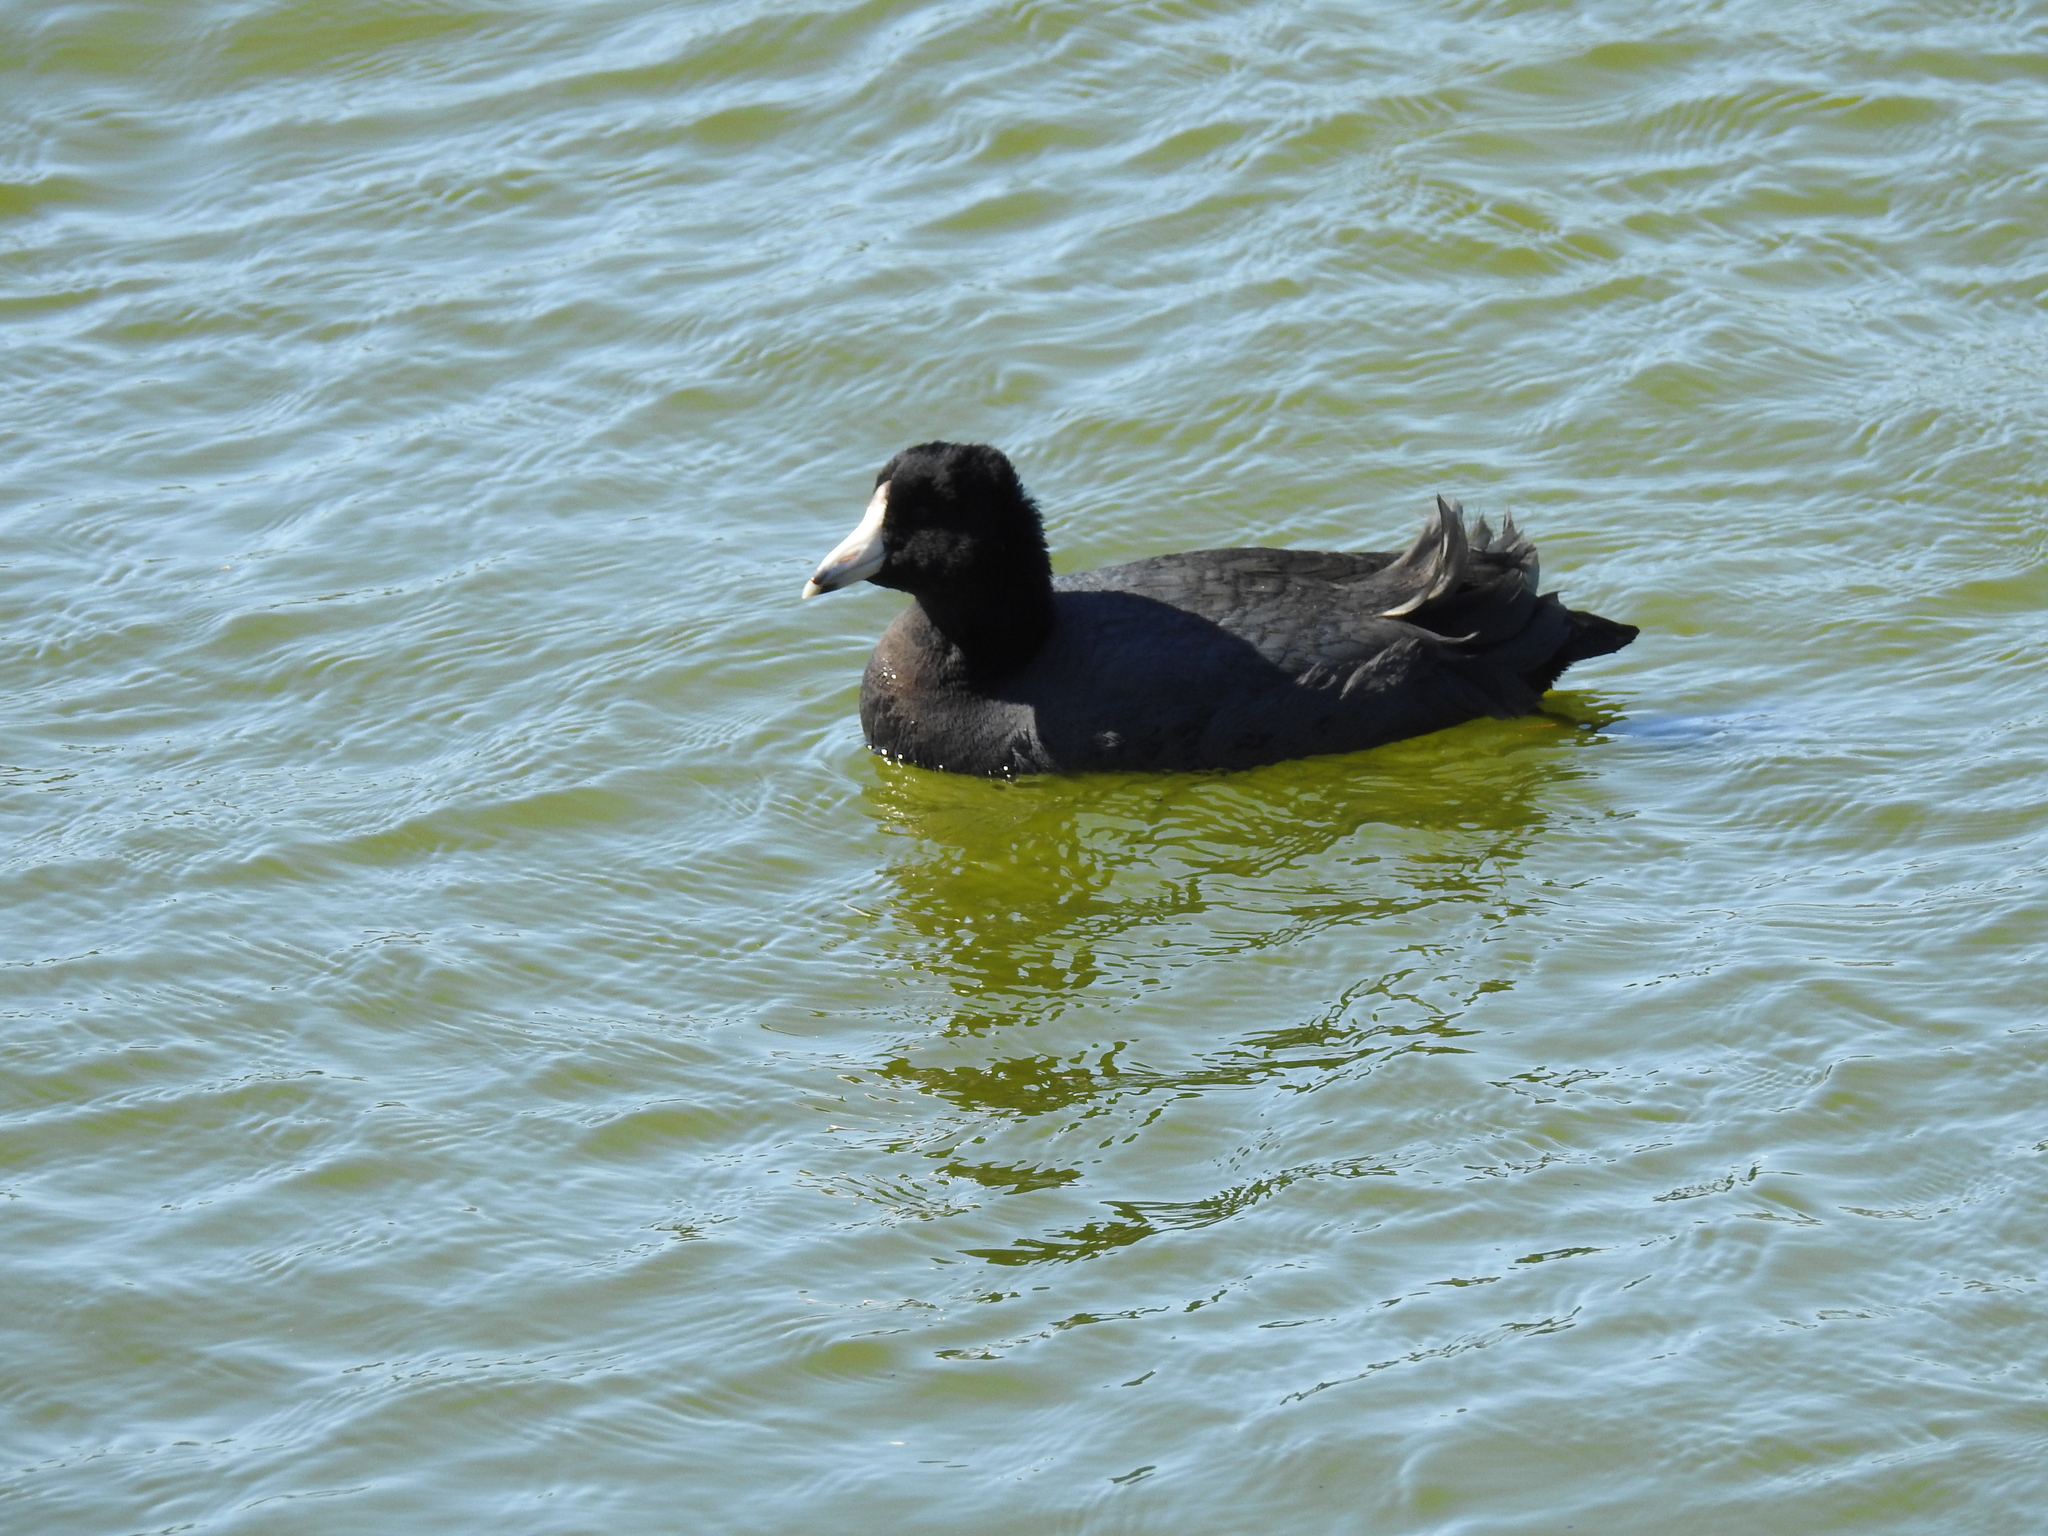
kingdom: Animalia
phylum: Chordata
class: Aves
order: Gruiformes
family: Rallidae
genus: Fulica
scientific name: Fulica americana
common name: American coot
